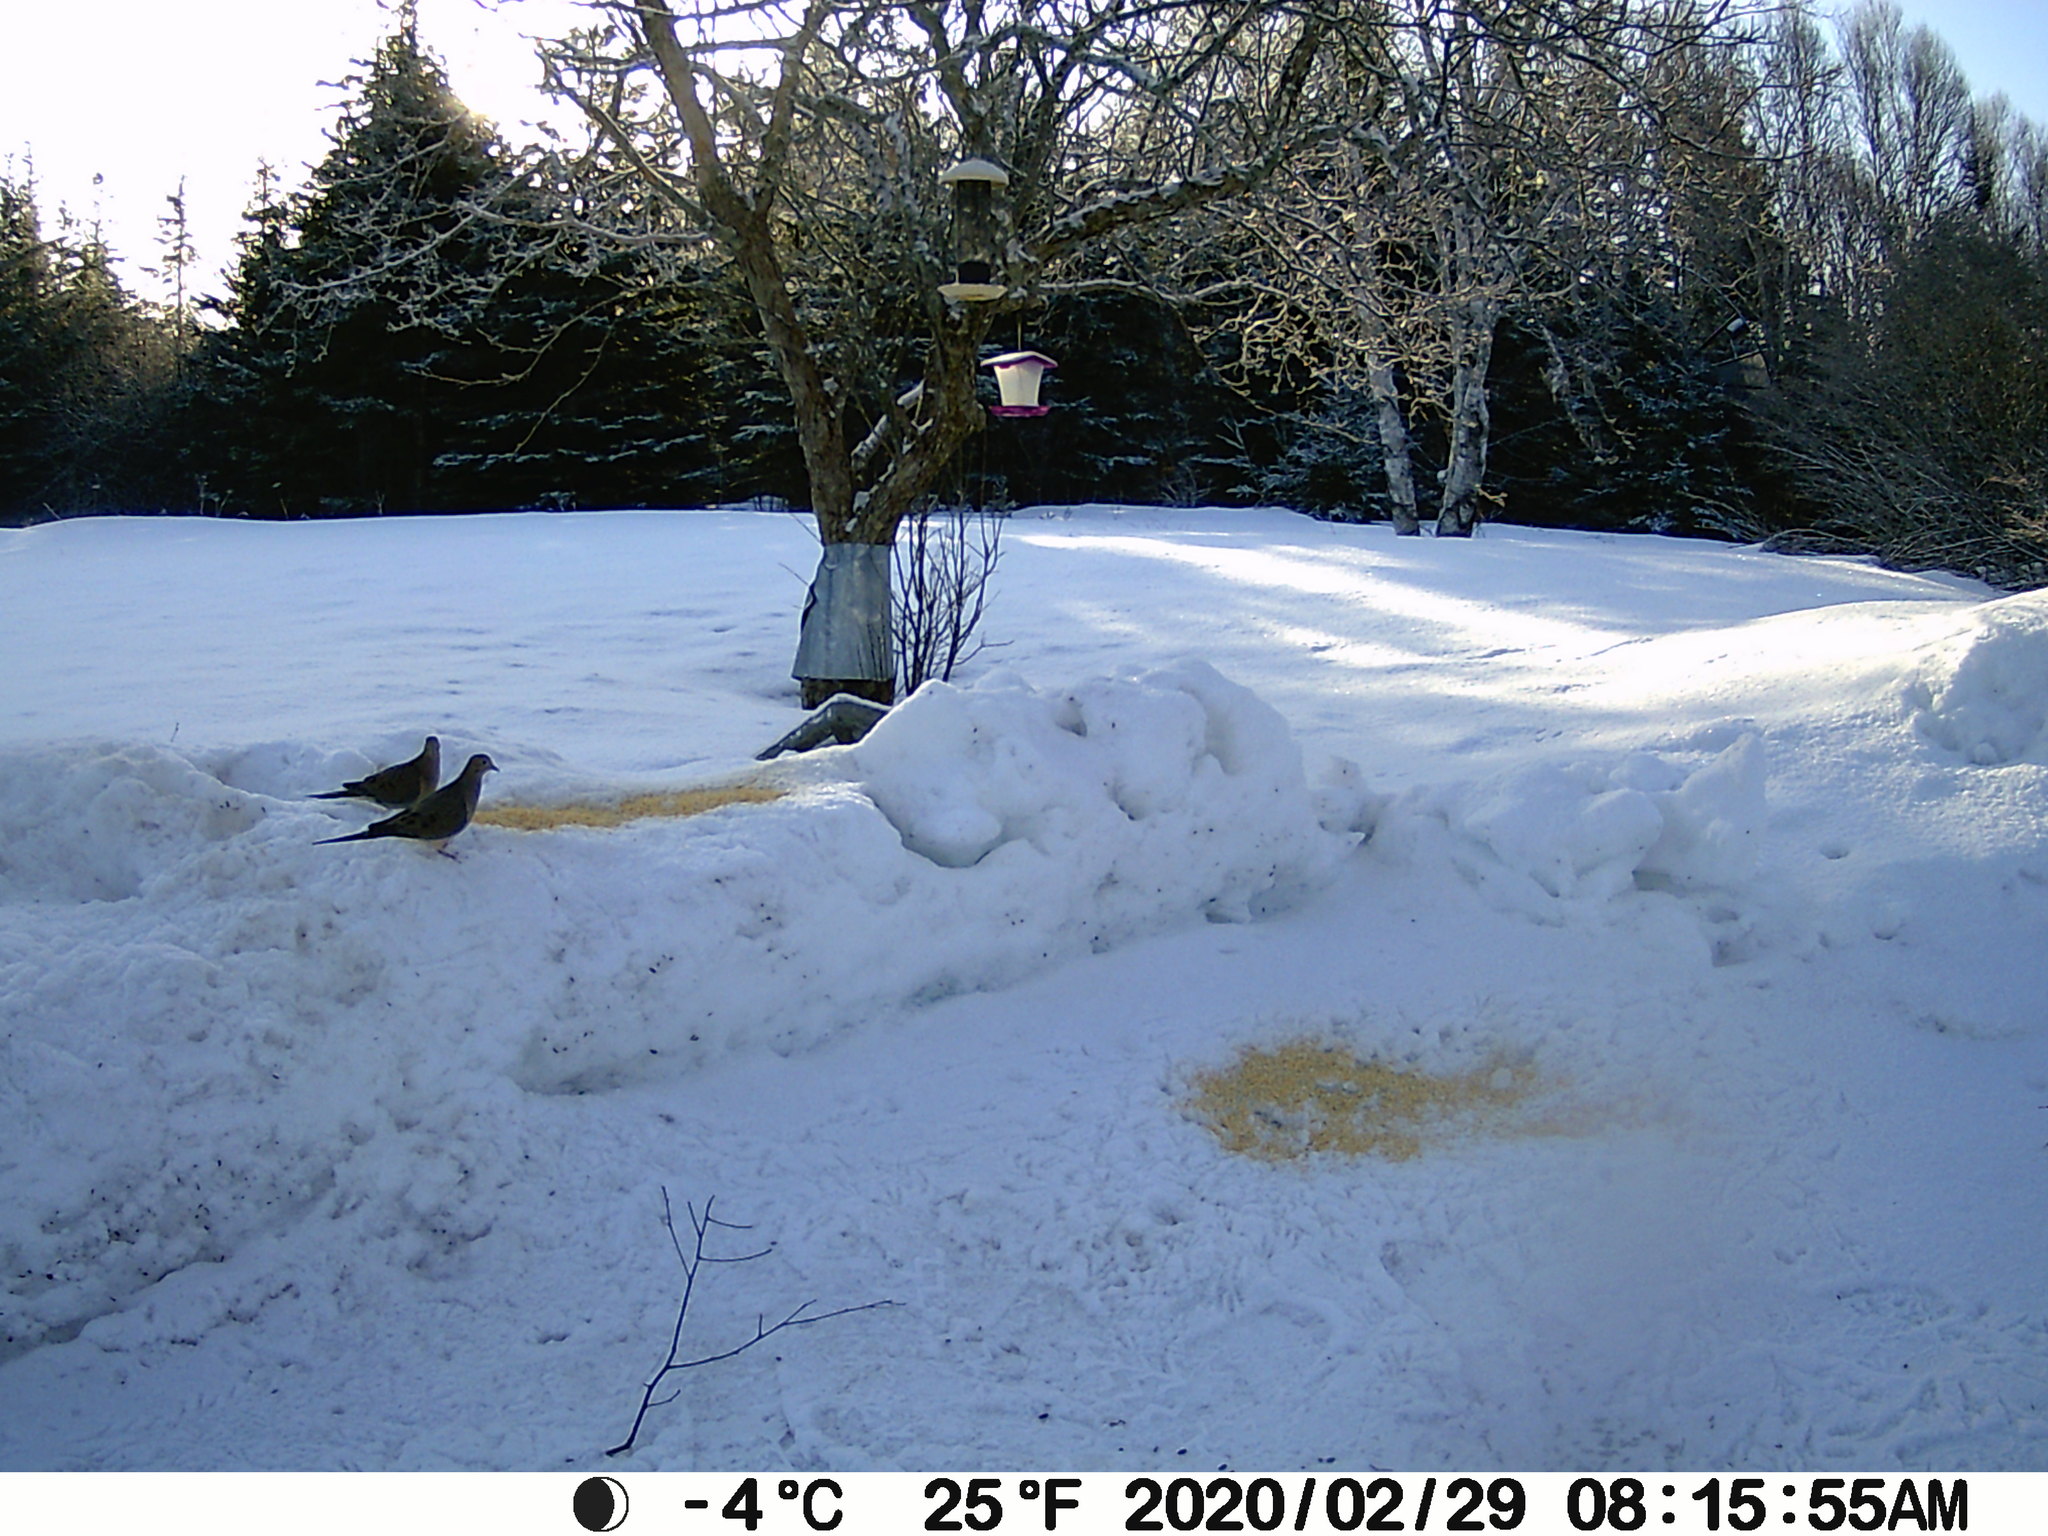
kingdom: Animalia
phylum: Chordata
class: Aves
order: Columbiformes
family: Columbidae
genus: Zenaida
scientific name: Zenaida macroura
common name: Mourning dove
